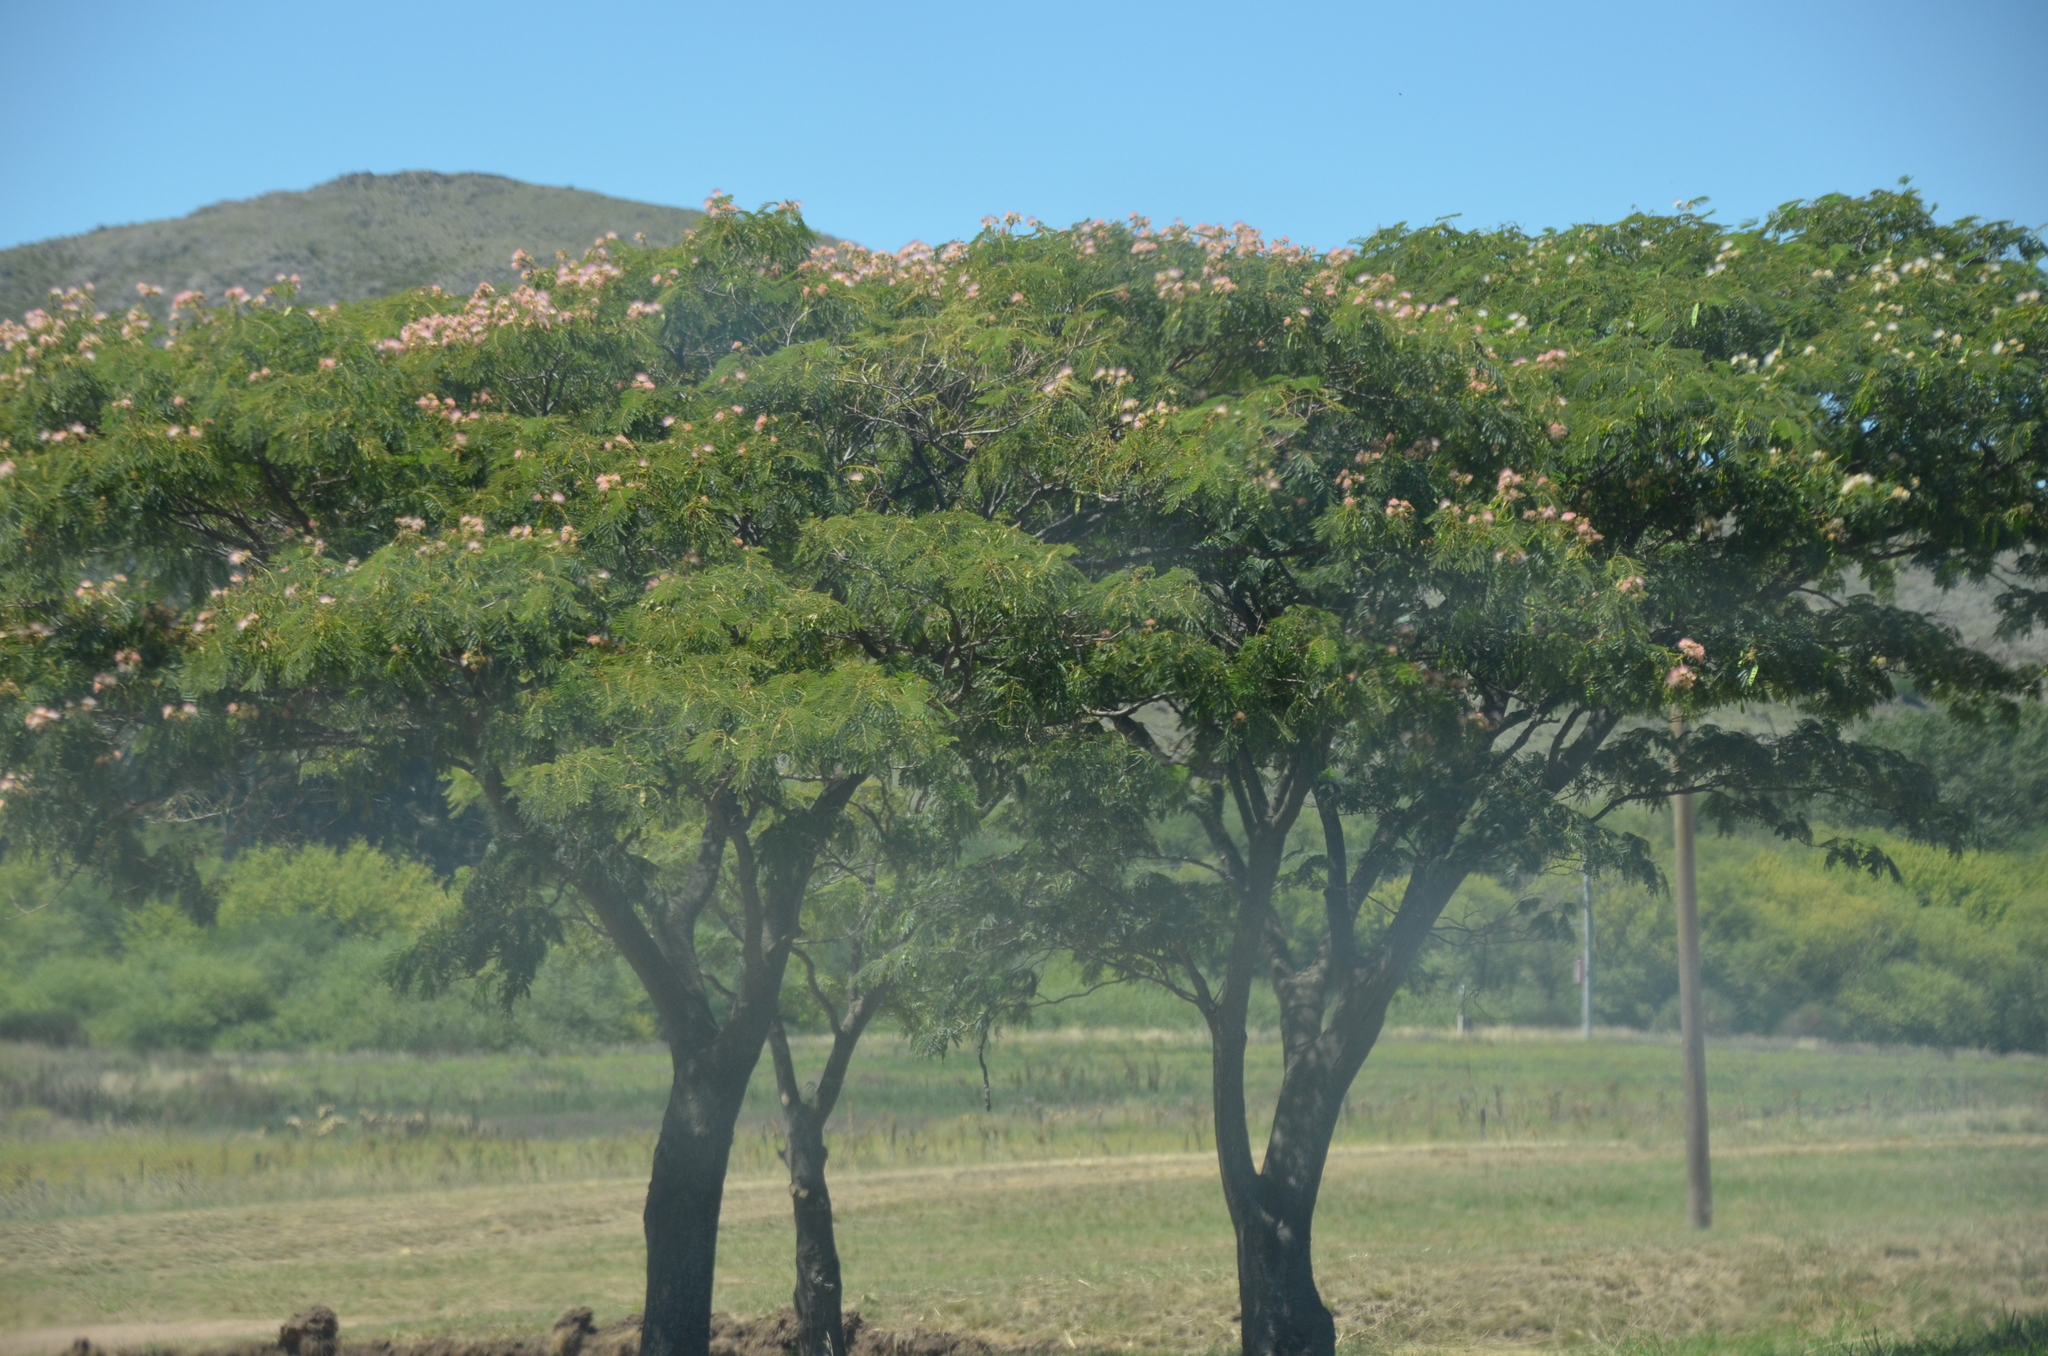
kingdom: Plantae
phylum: Tracheophyta
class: Magnoliopsida
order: Fabales
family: Fabaceae
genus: Albizia
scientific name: Albizia julibrissin
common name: Silktree
